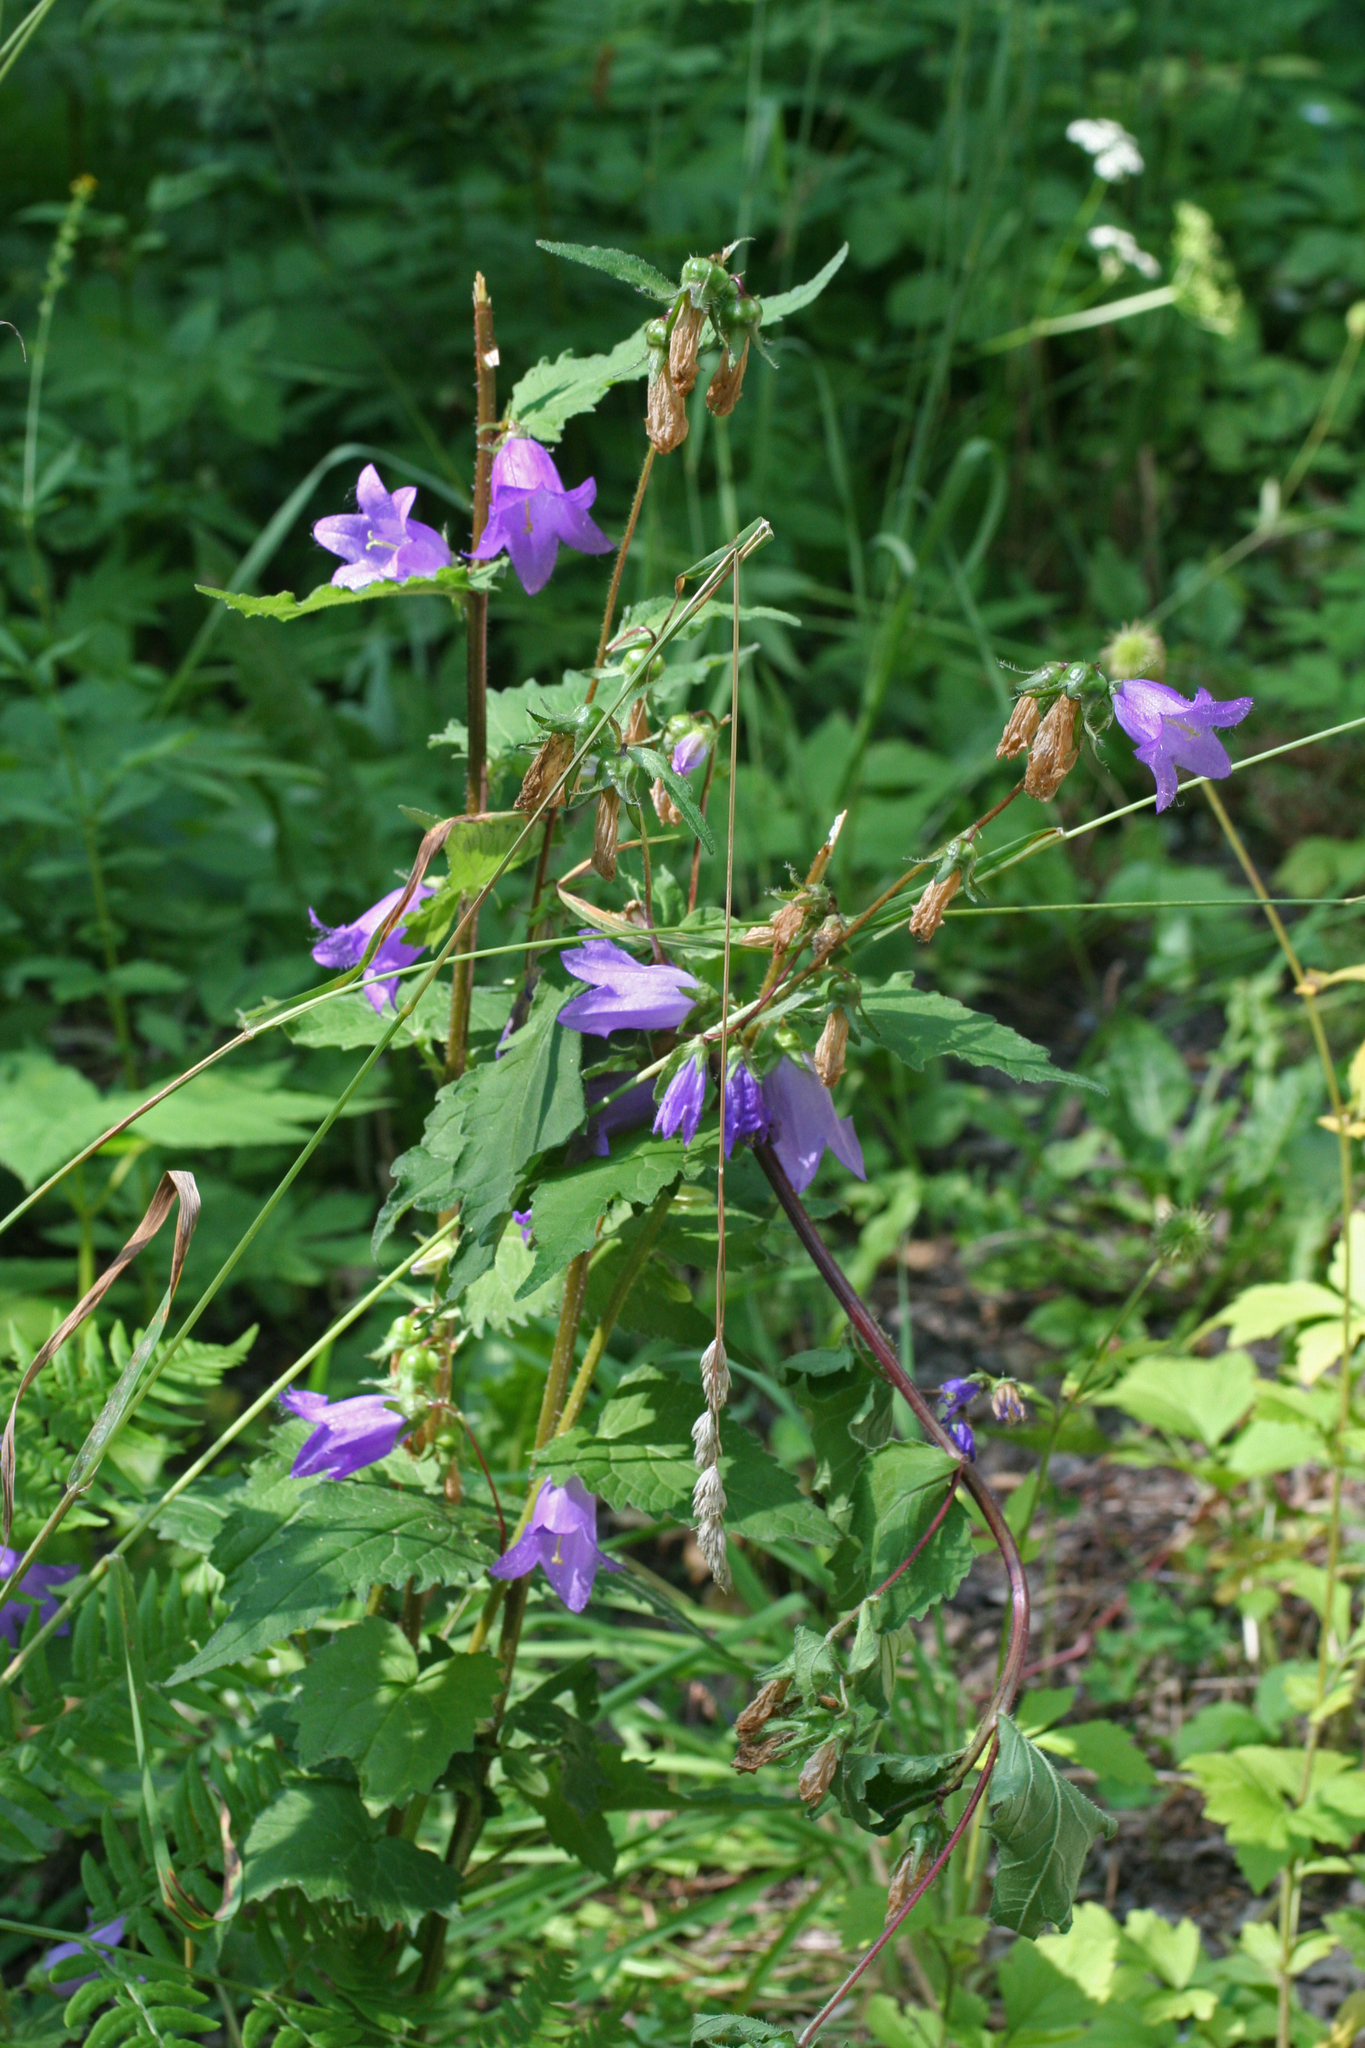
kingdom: Plantae
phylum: Tracheophyta
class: Magnoliopsida
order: Asterales
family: Campanulaceae
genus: Campanula
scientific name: Campanula trachelium
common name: Nettle-leaved bellflower
